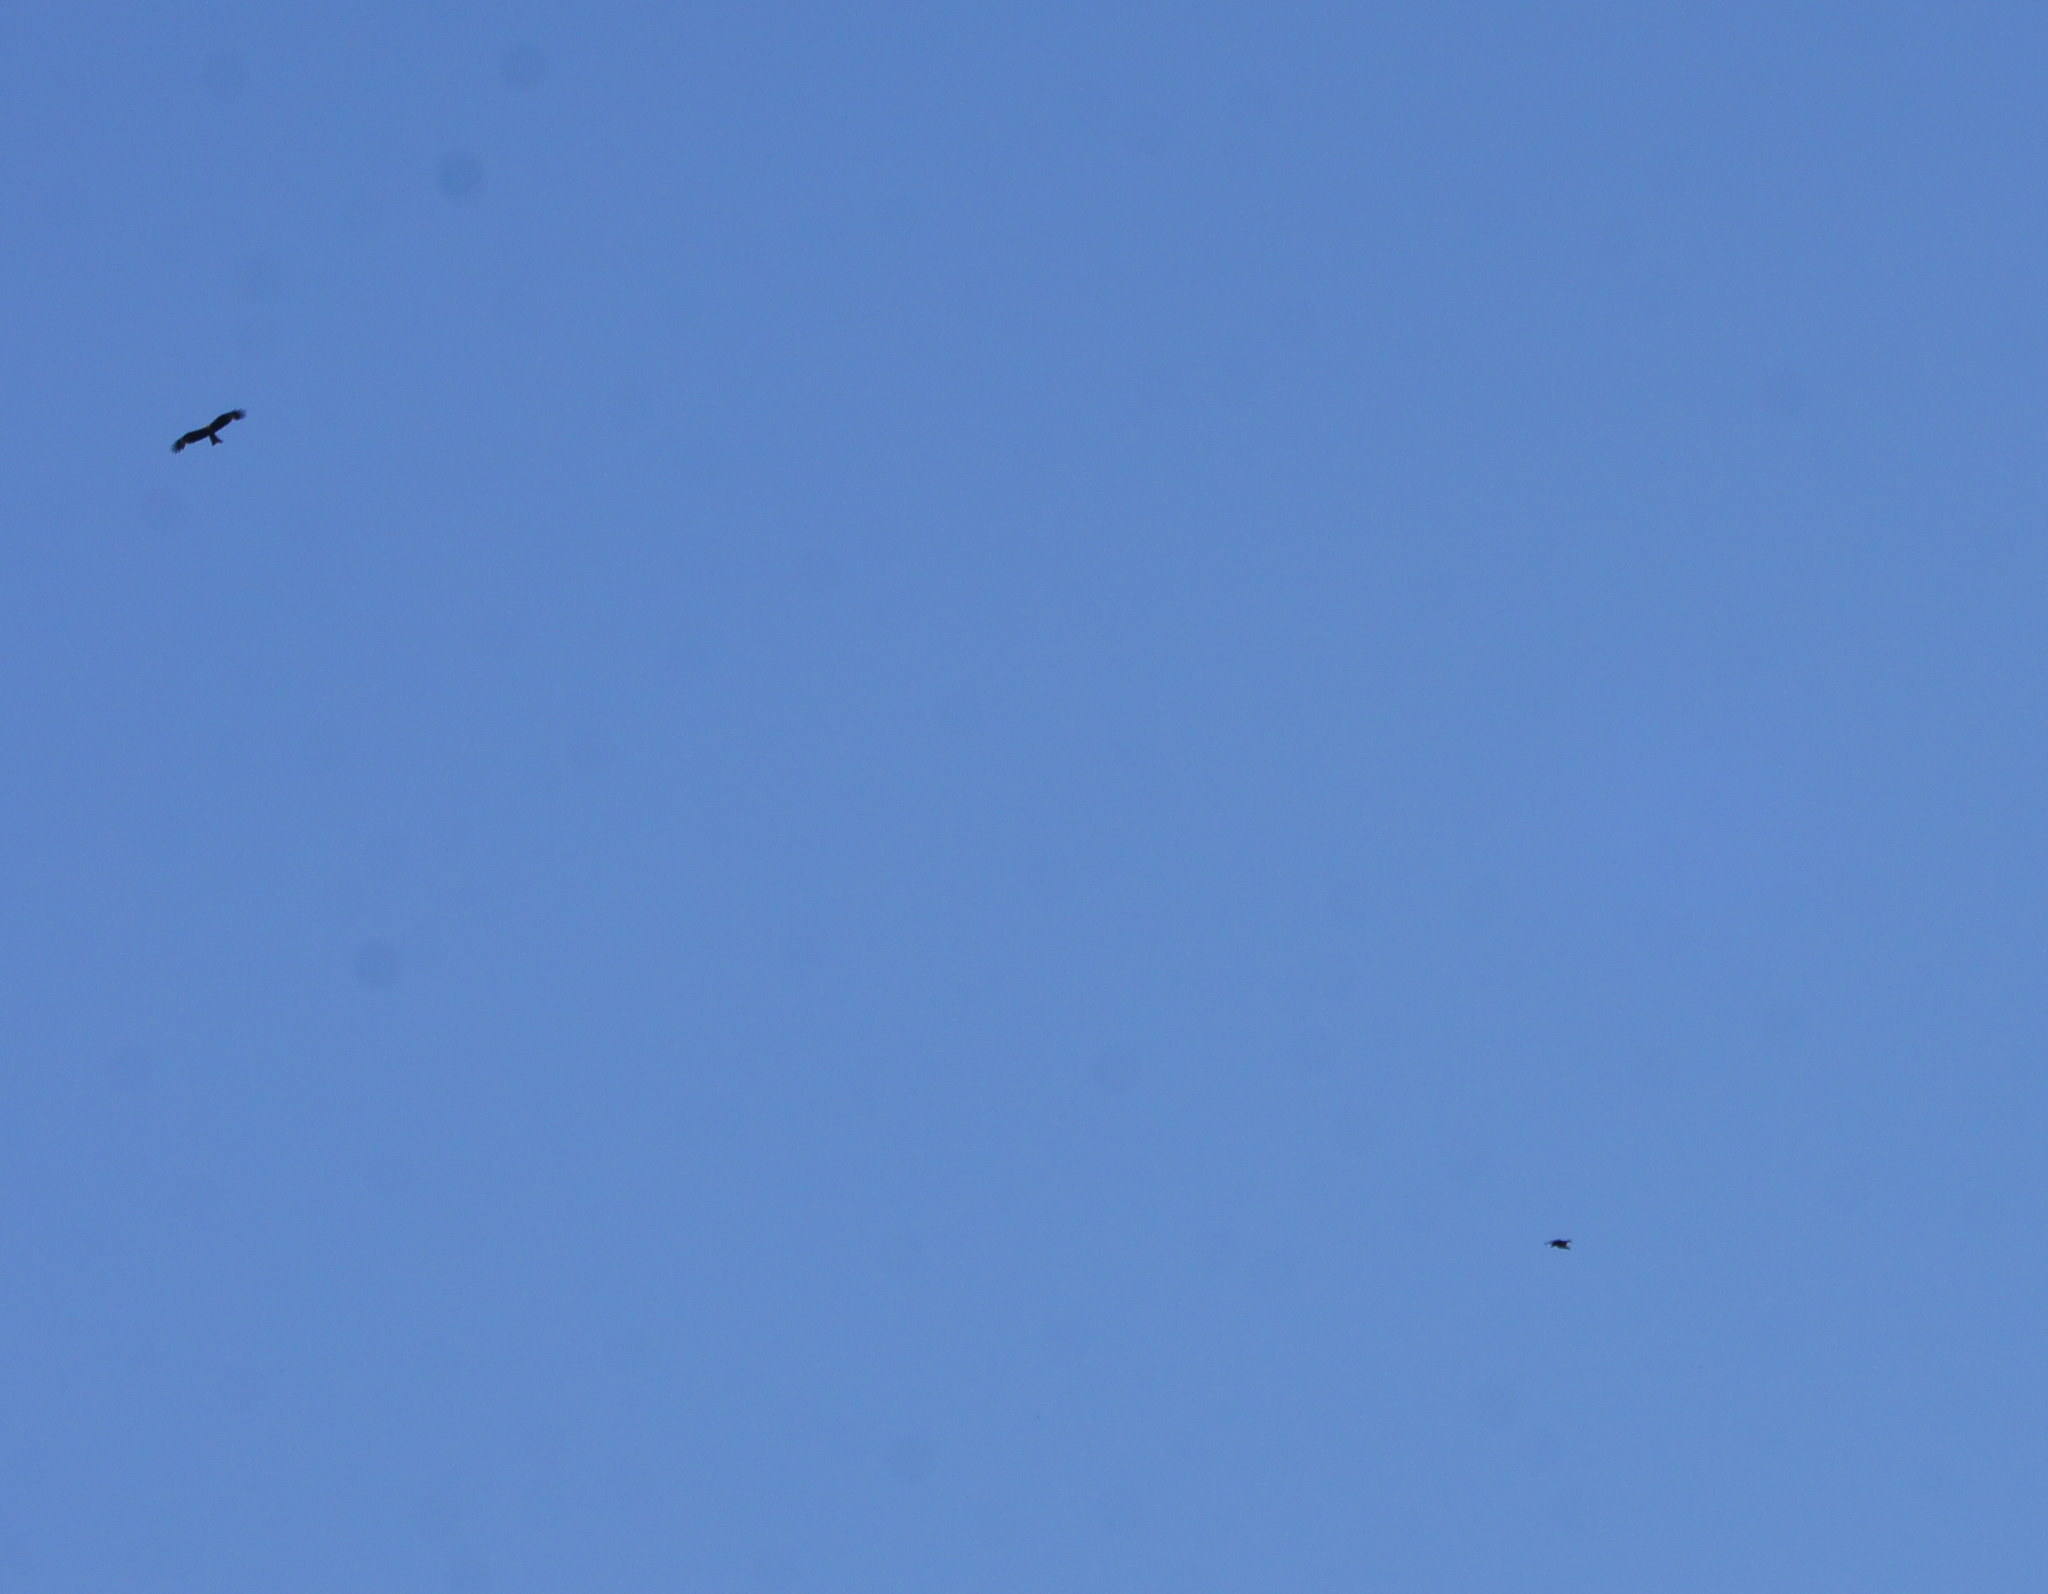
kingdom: Animalia
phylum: Chordata
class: Aves
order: Accipitriformes
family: Accipitridae
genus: Milvus
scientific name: Milvus migrans
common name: Black kite
